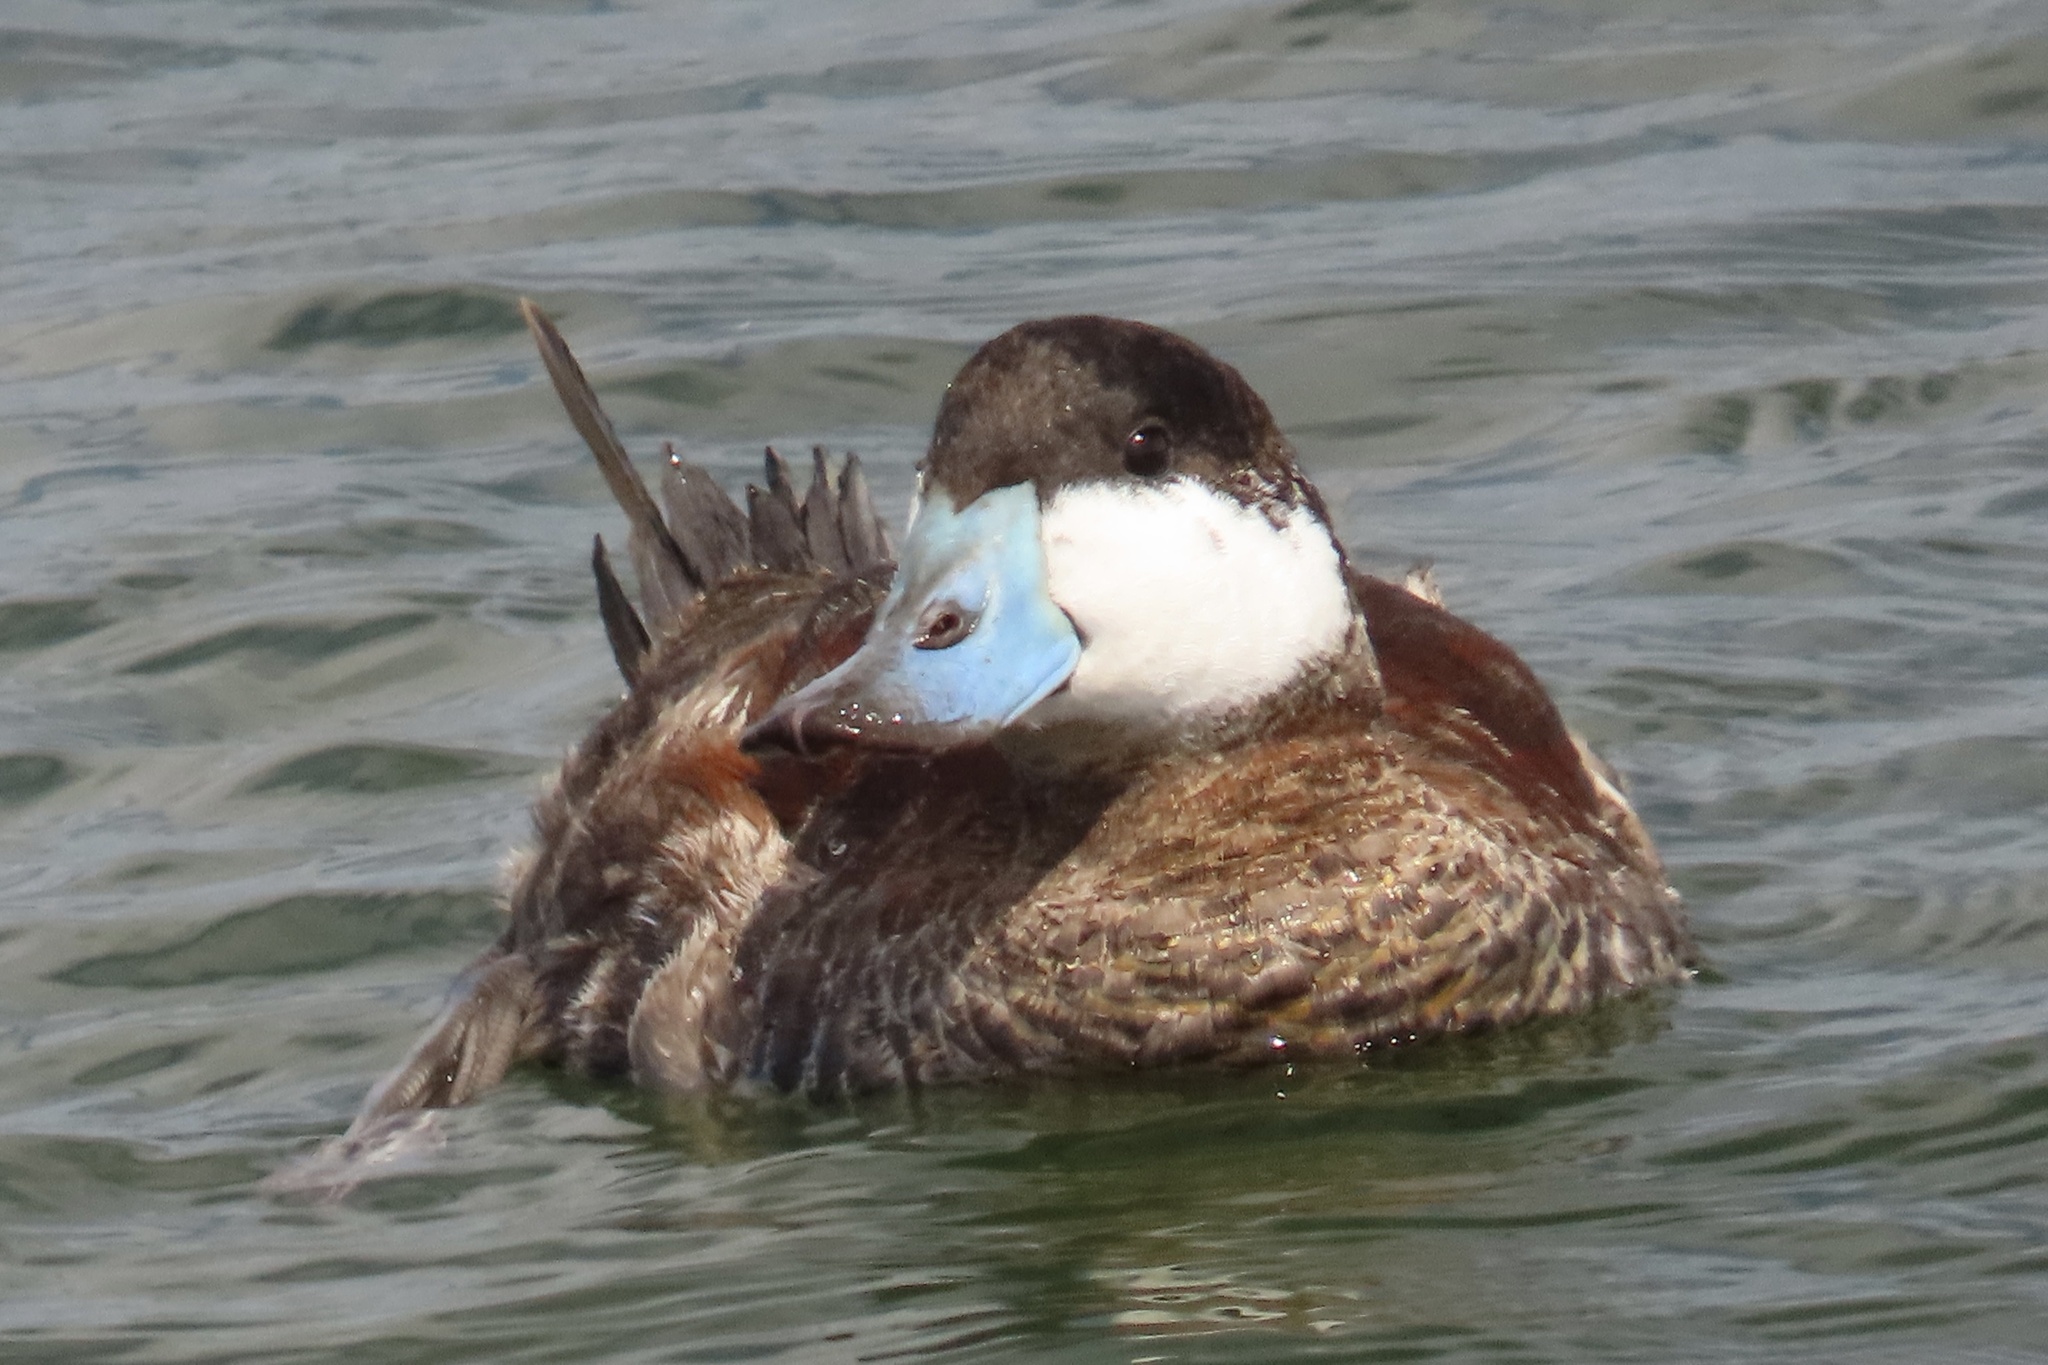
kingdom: Animalia
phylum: Chordata
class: Aves
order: Anseriformes
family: Anatidae
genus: Oxyura
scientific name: Oxyura jamaicensis
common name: Ruddy duck
